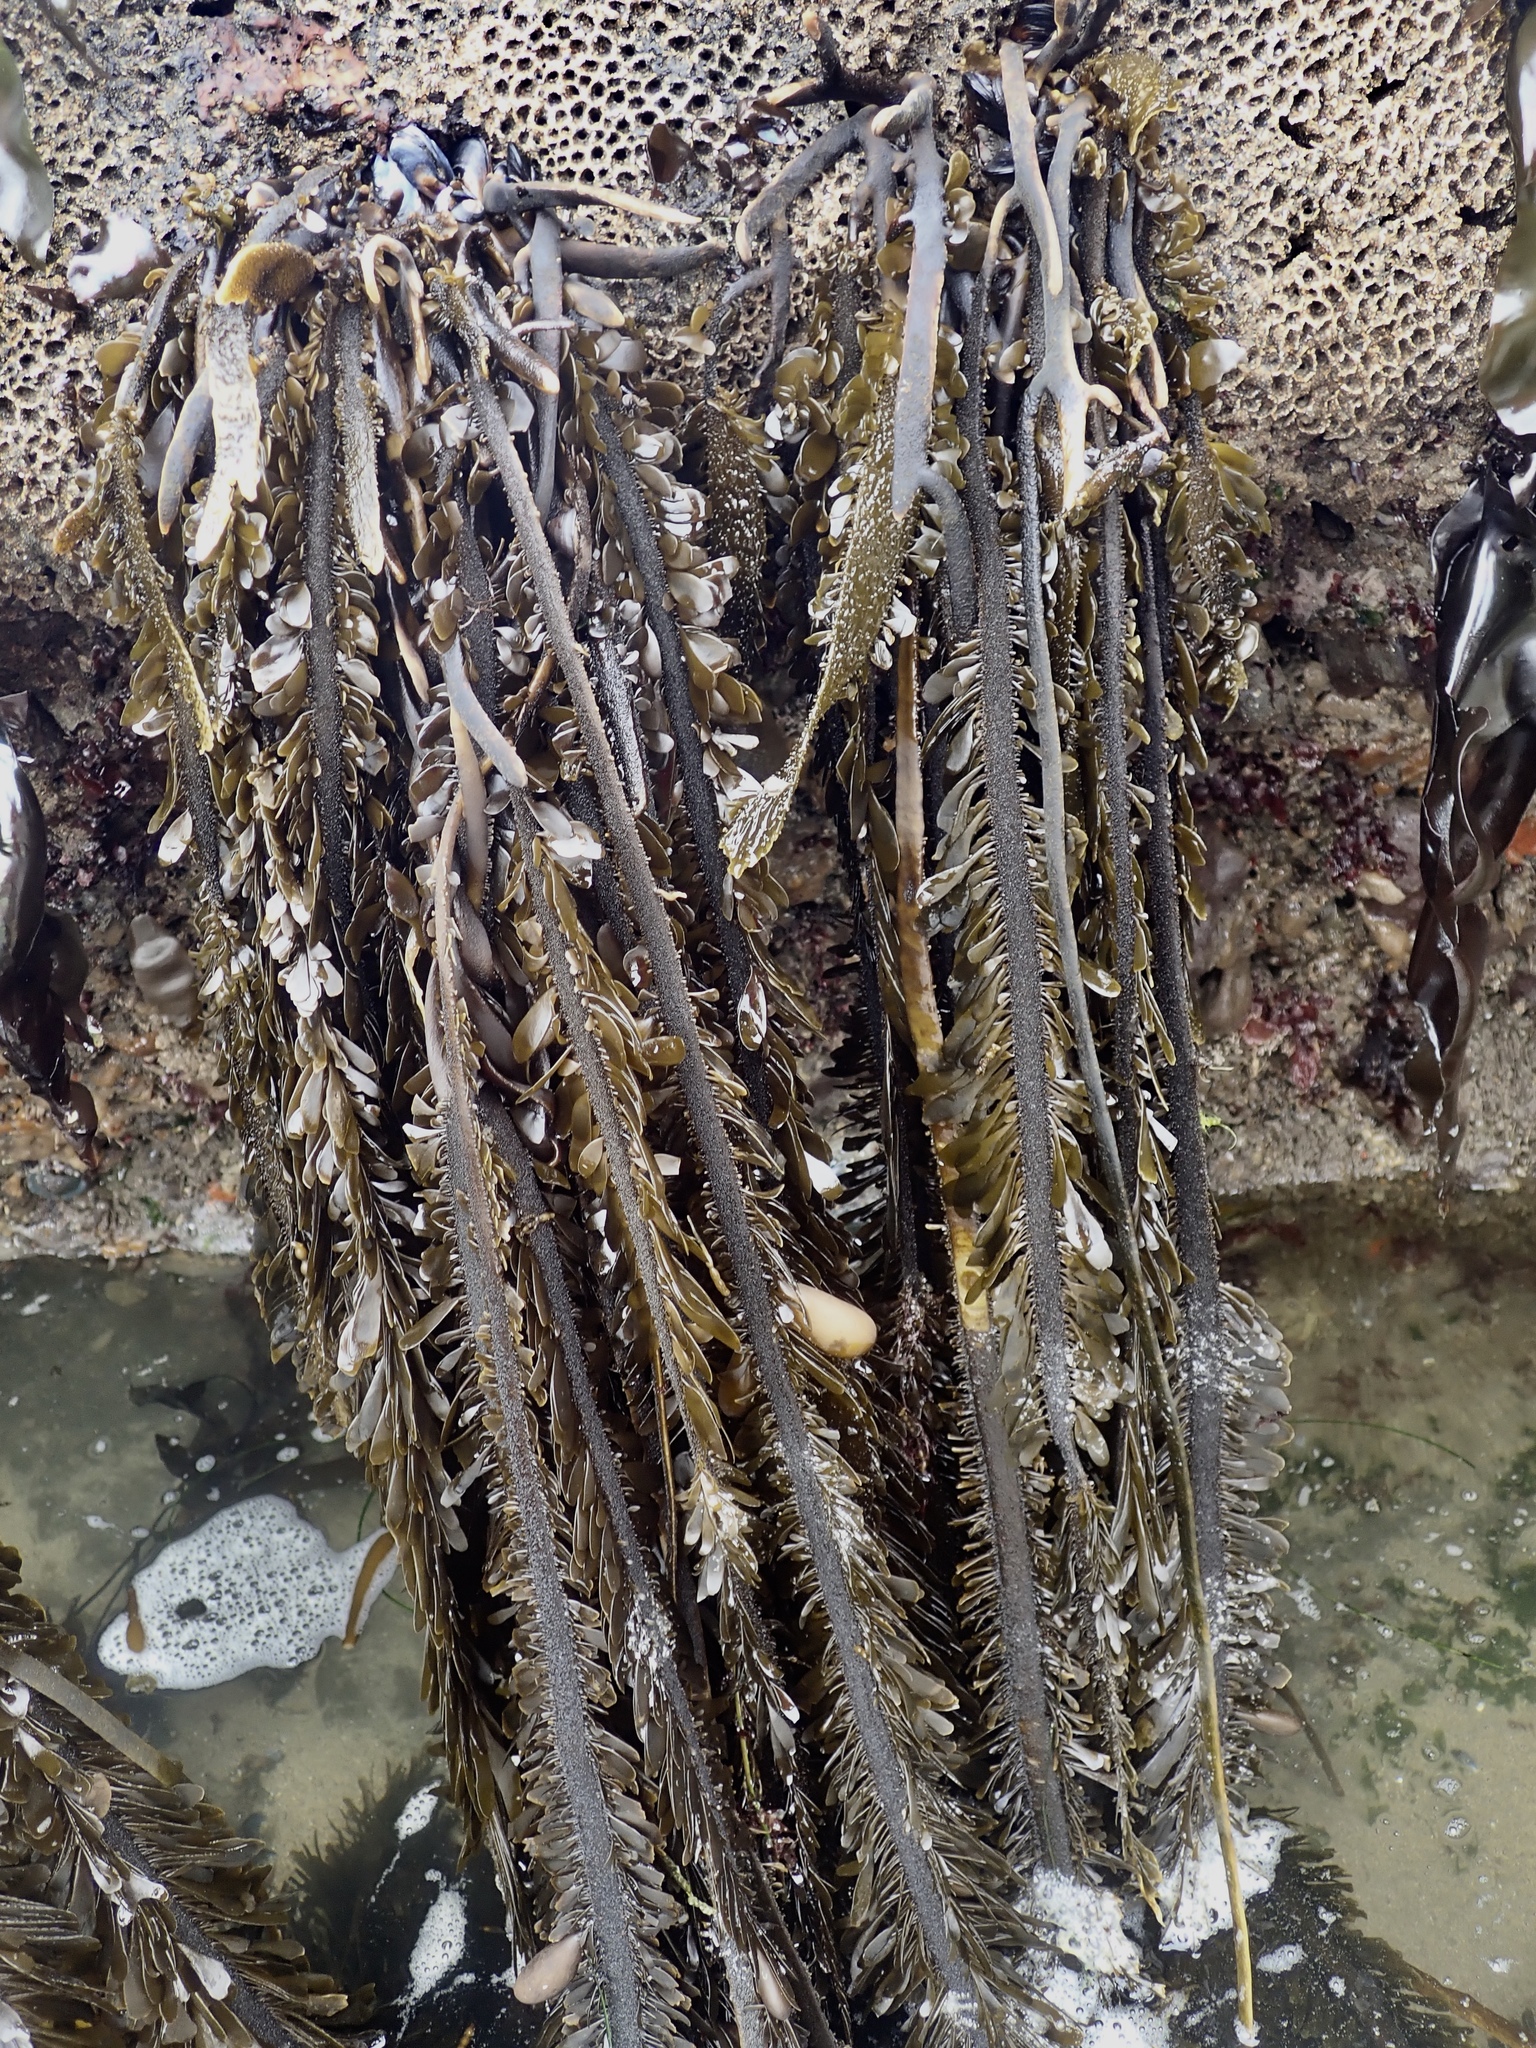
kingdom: Chromista
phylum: Ochrophyta
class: Phaeophyceae
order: Laminariales
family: Lessoniaceae
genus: Egregia
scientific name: Egregia menziesii
